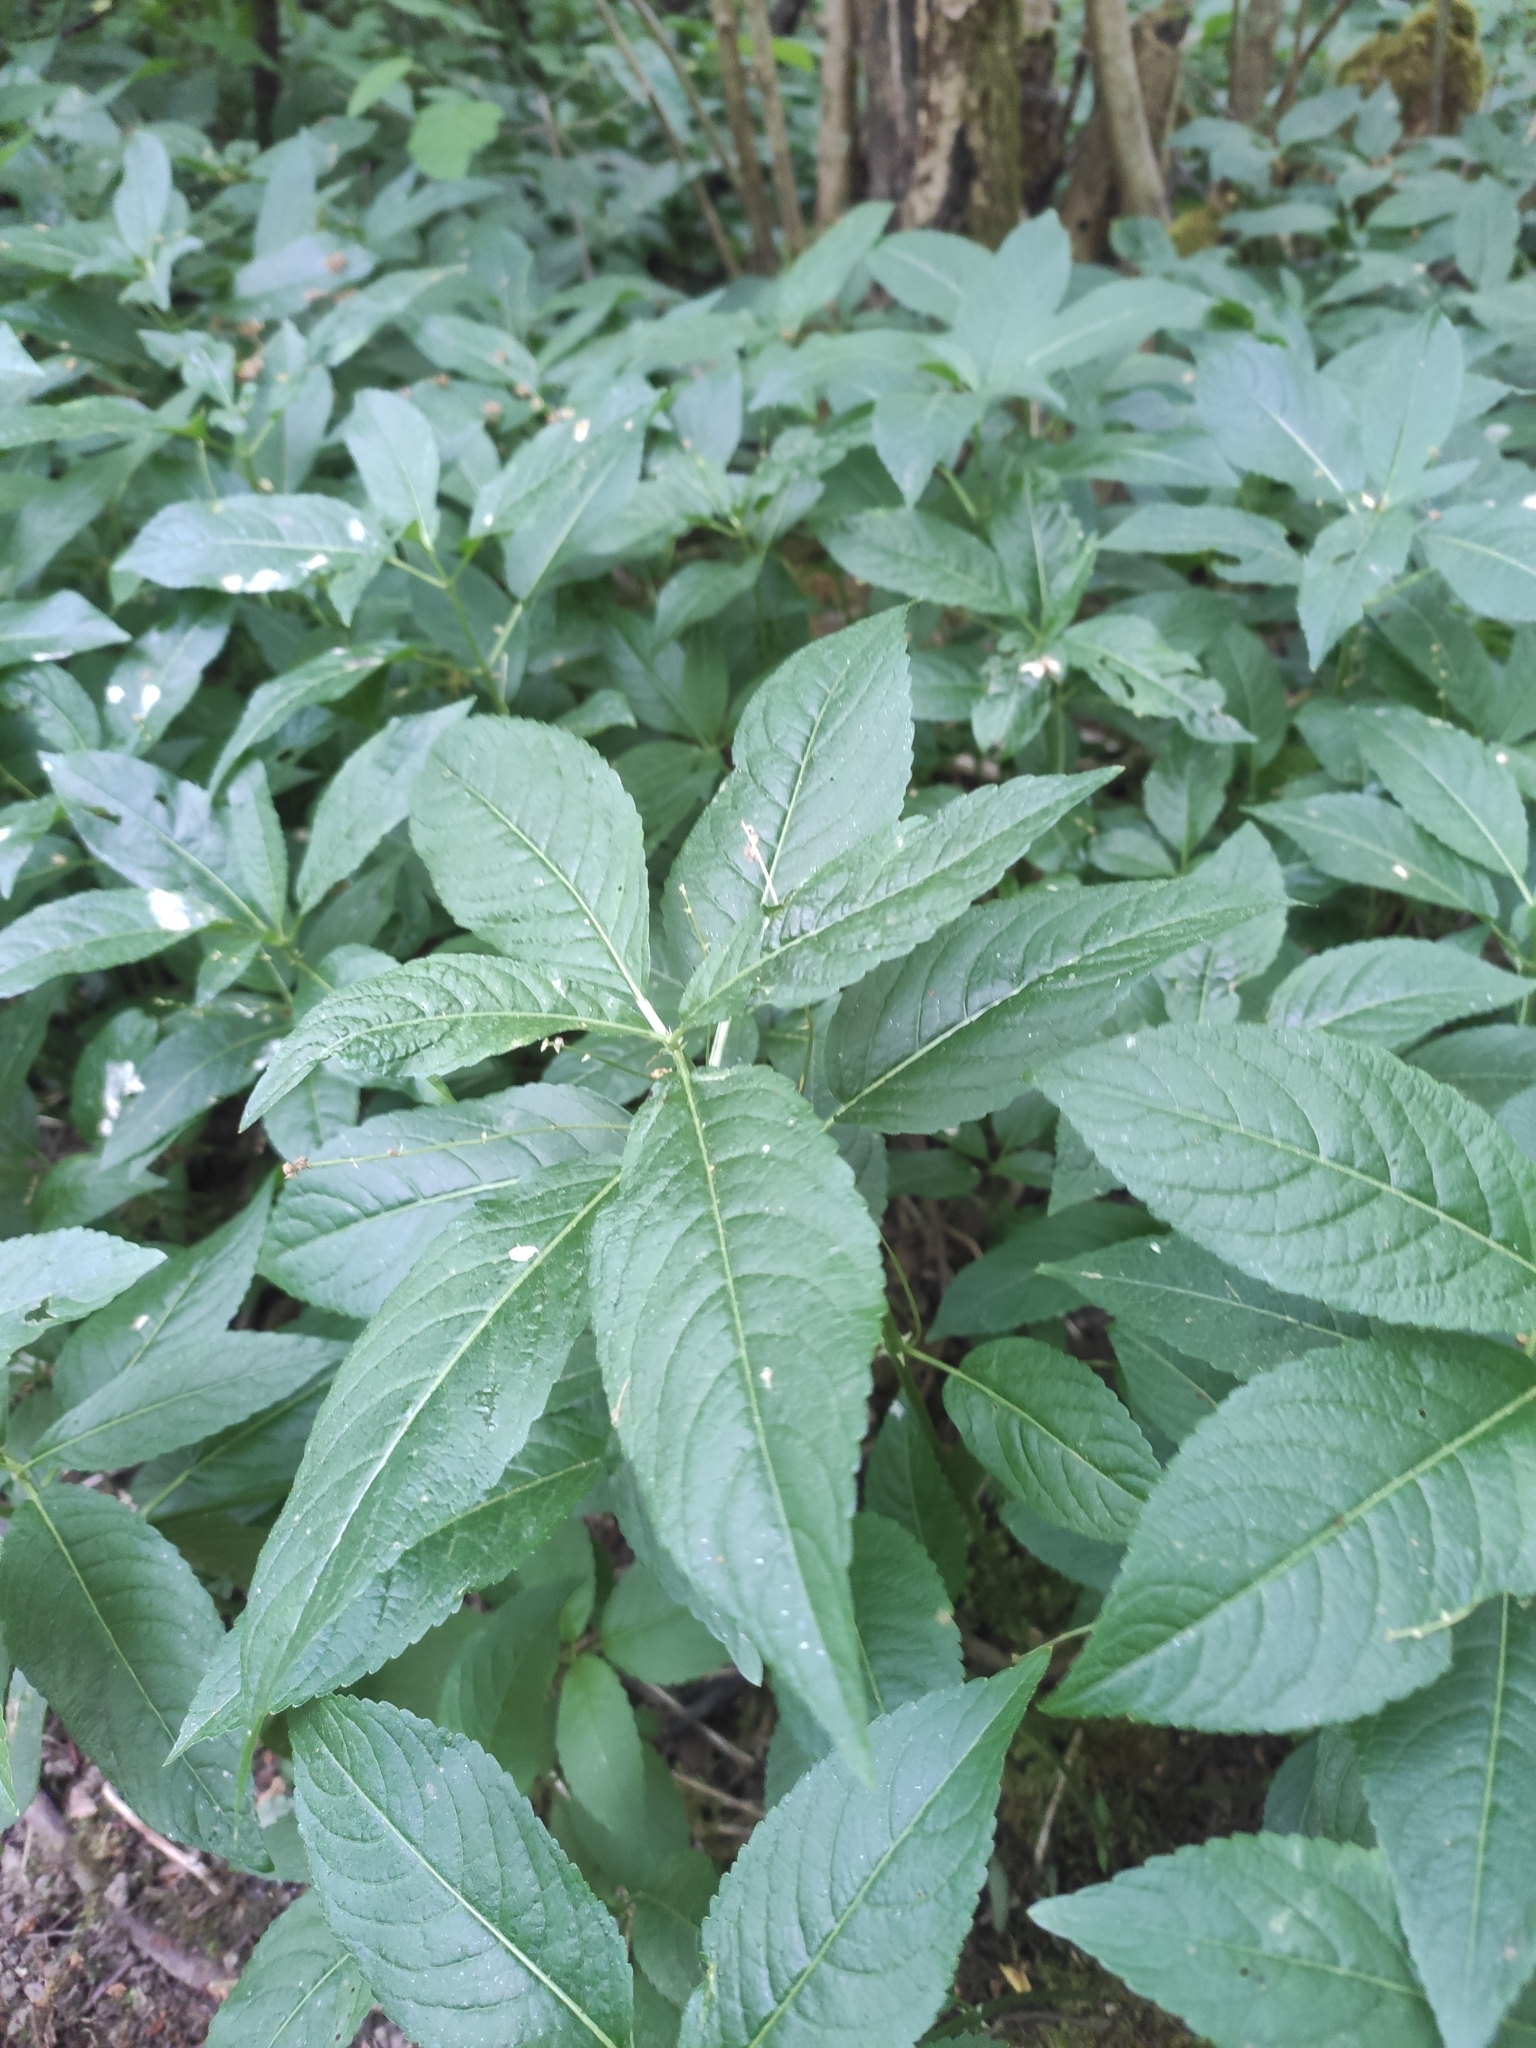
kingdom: Plantae
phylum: Tracheophyta
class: Magnoliopsida
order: Malpighiales
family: Euphorbiaceae
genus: Mercurialis
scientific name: Mercurialis perennis
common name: Dog mercury
